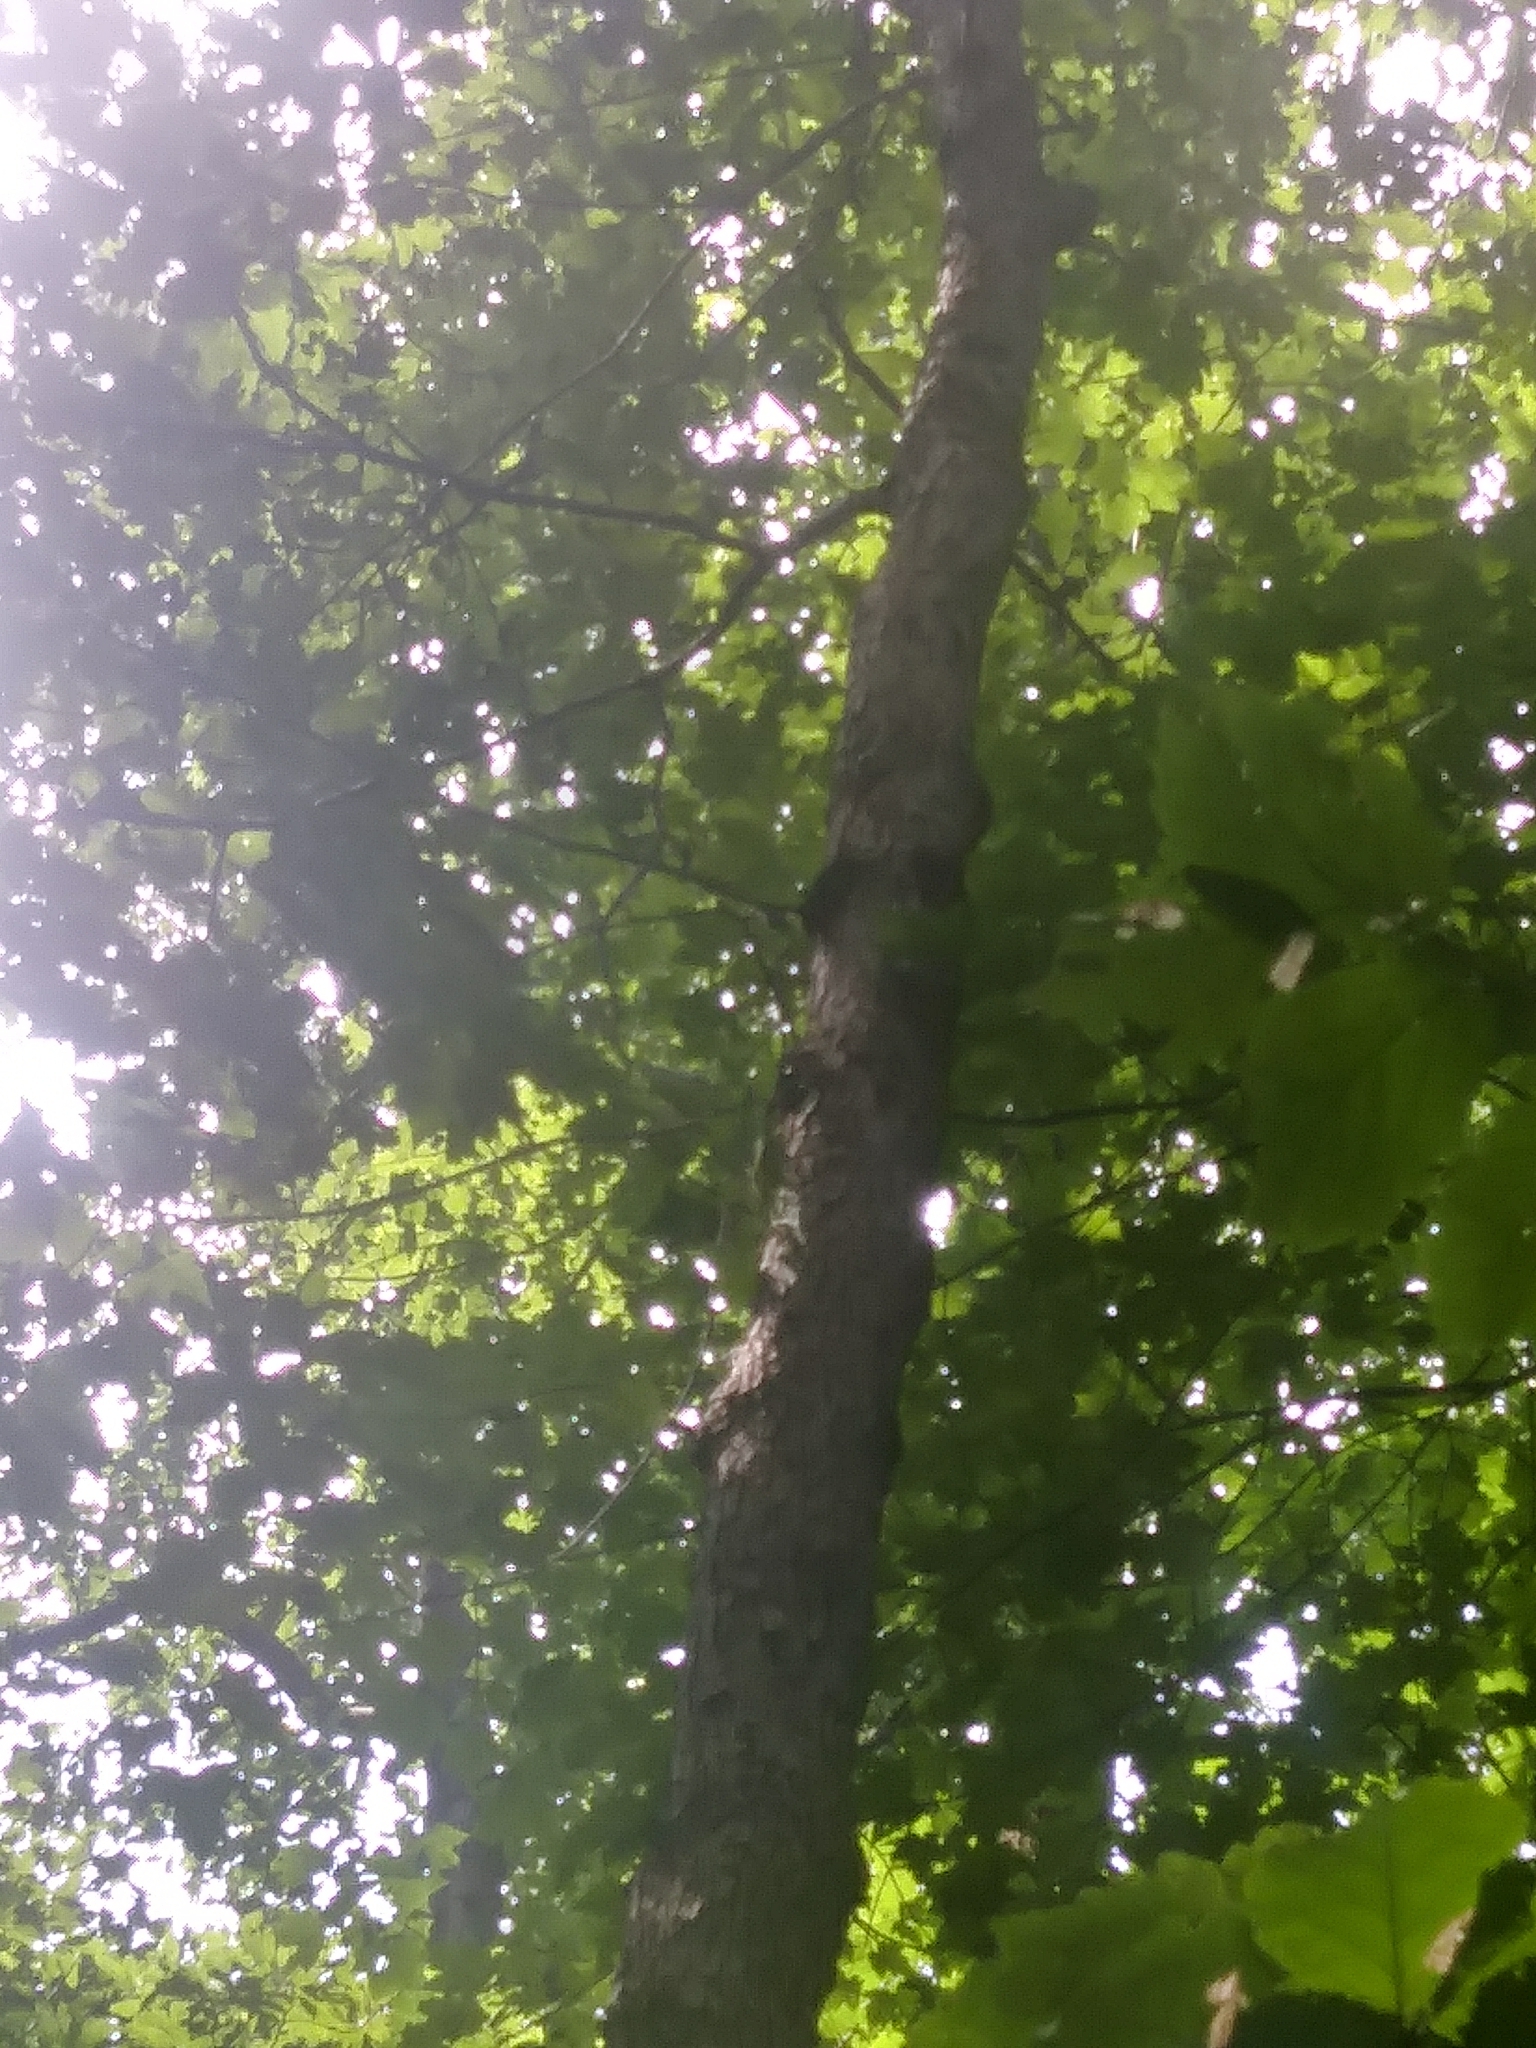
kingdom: Plantae
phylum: Tracheophyta
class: Magnoliopsida
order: Fagales
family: Fagaceae
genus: Quercus
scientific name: Quercus alba
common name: White oak
